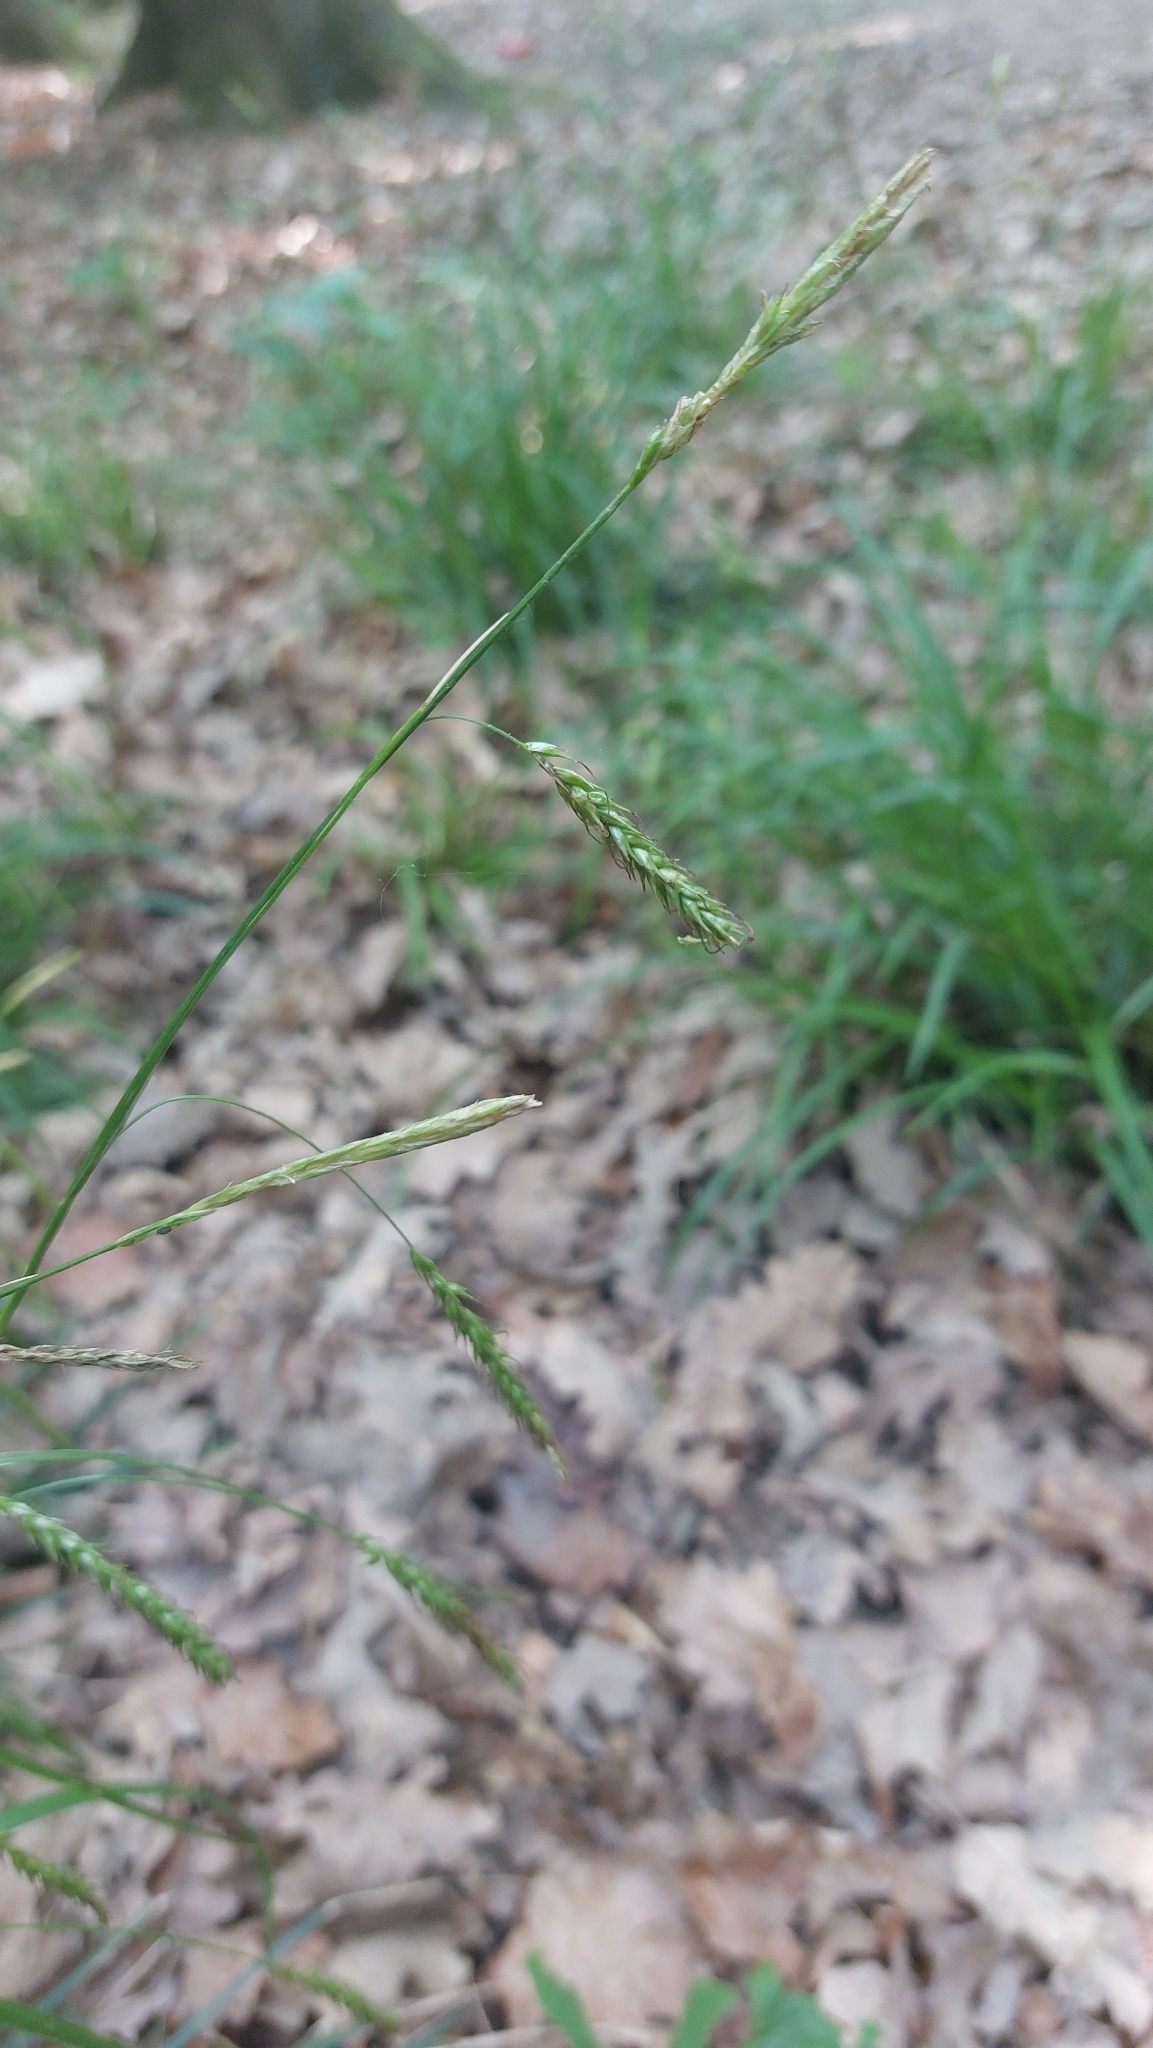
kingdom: Plantae
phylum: Tracheophyta
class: Liliopsida
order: Poales
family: Cyperaceae
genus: Carex
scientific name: Carex sylvatica
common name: Wood-sedge
